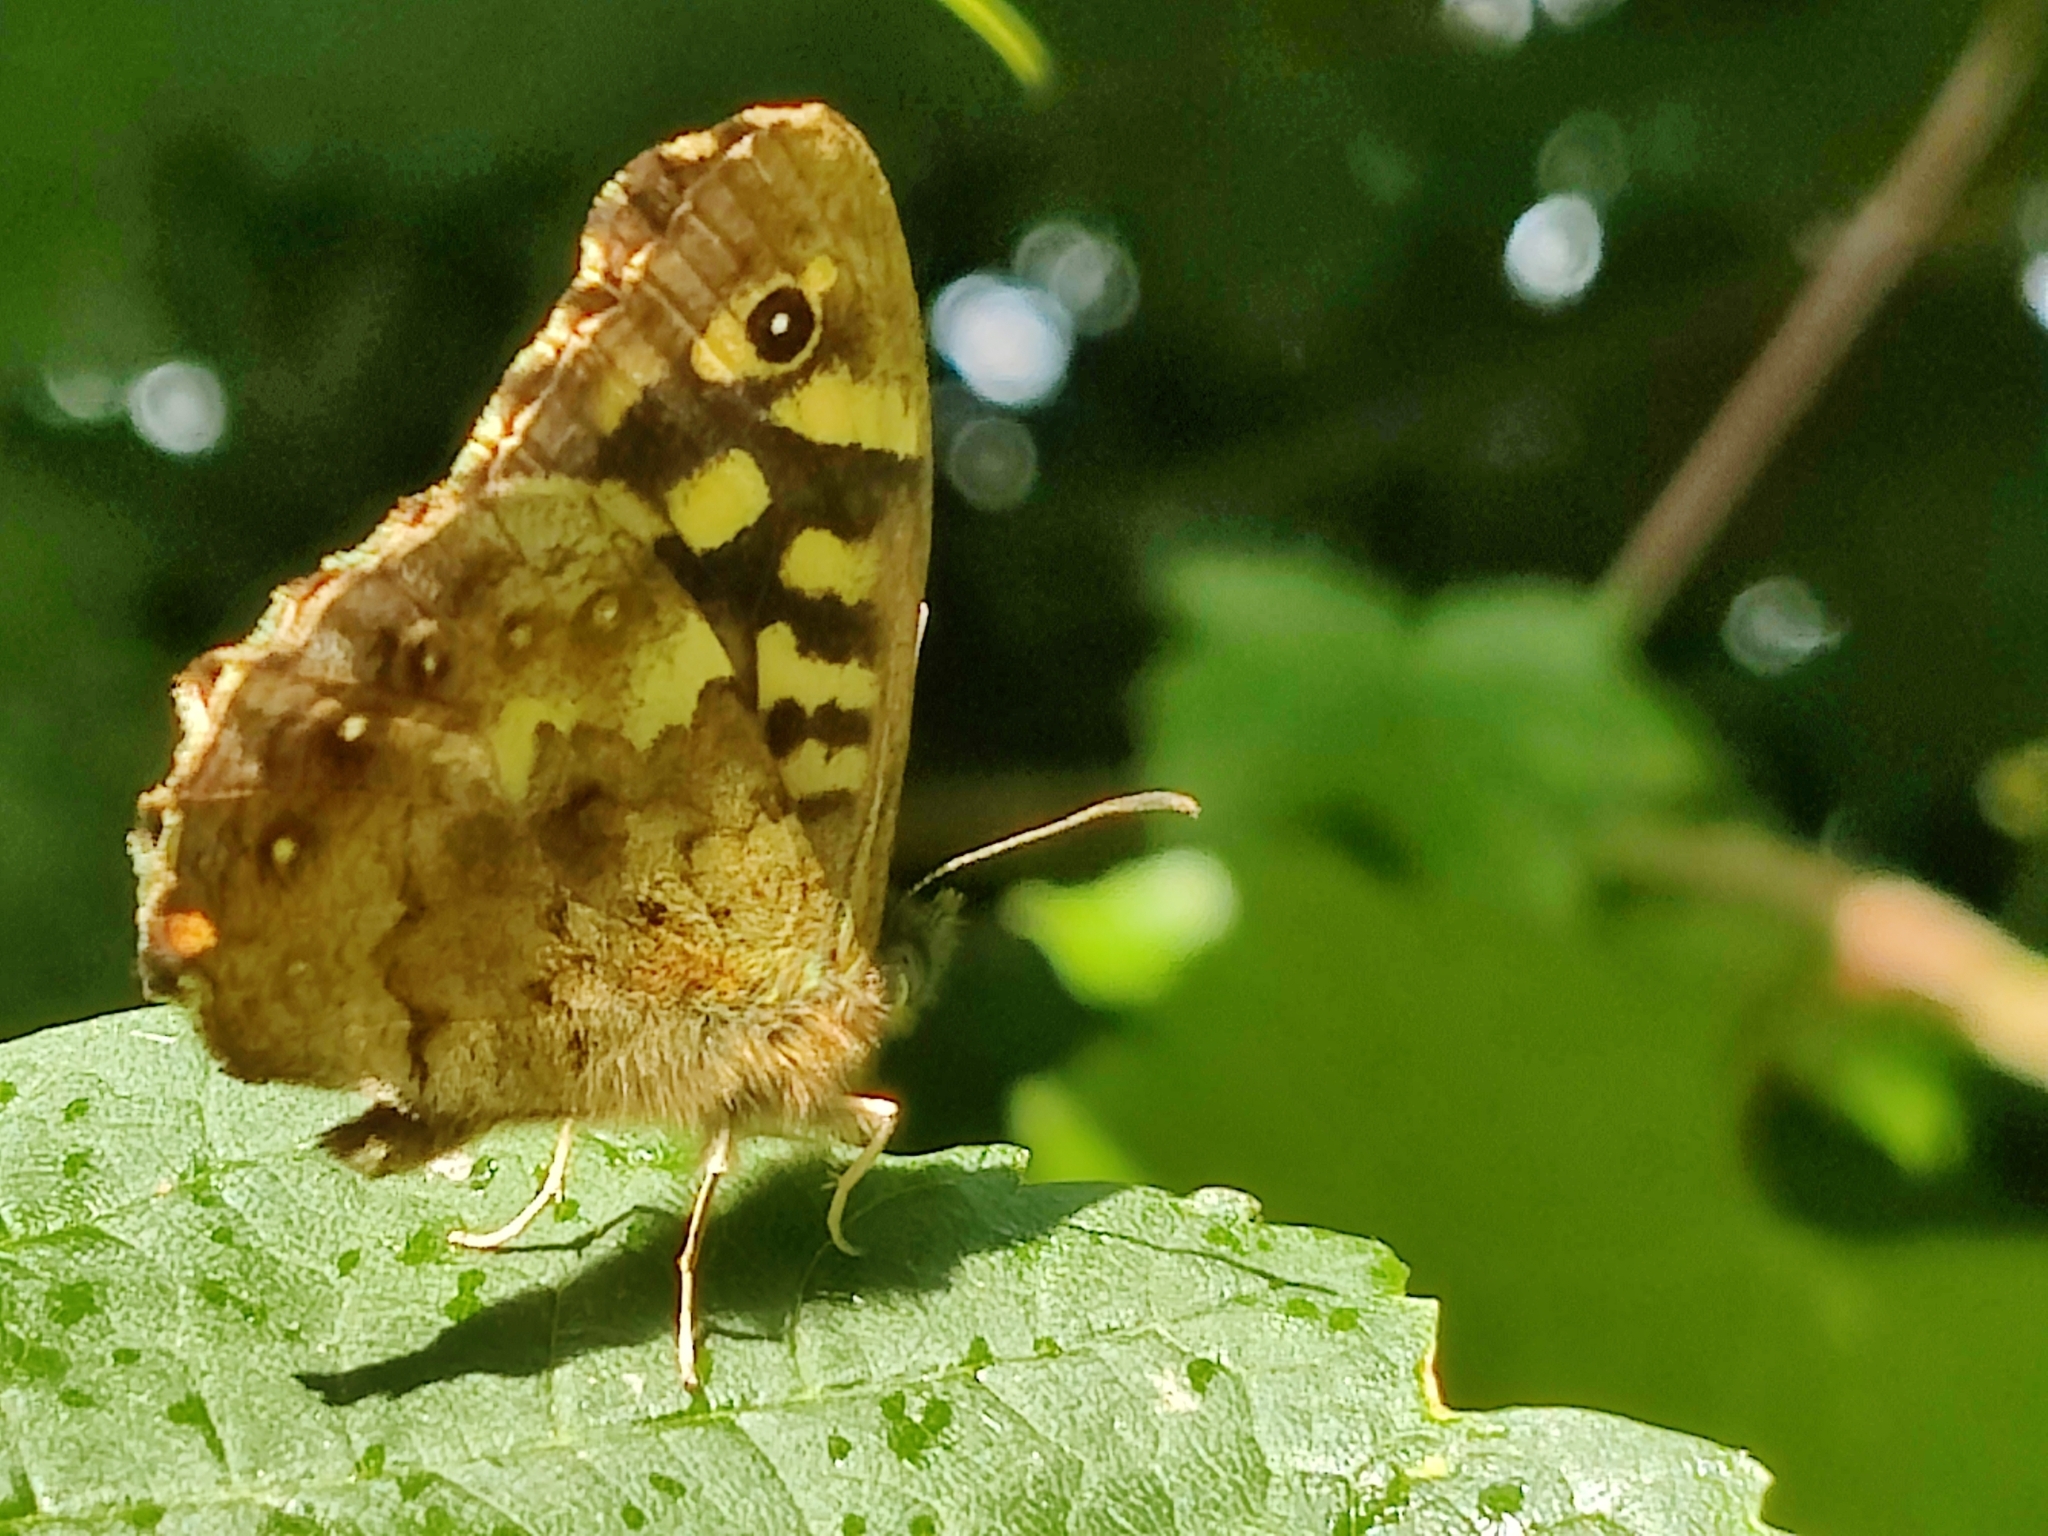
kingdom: Animalia
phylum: Arthropoda
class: Insecta
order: Lepidoptera
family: Nymphalidae
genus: Pararge
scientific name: Pararge aegeria
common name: Speckled wood
